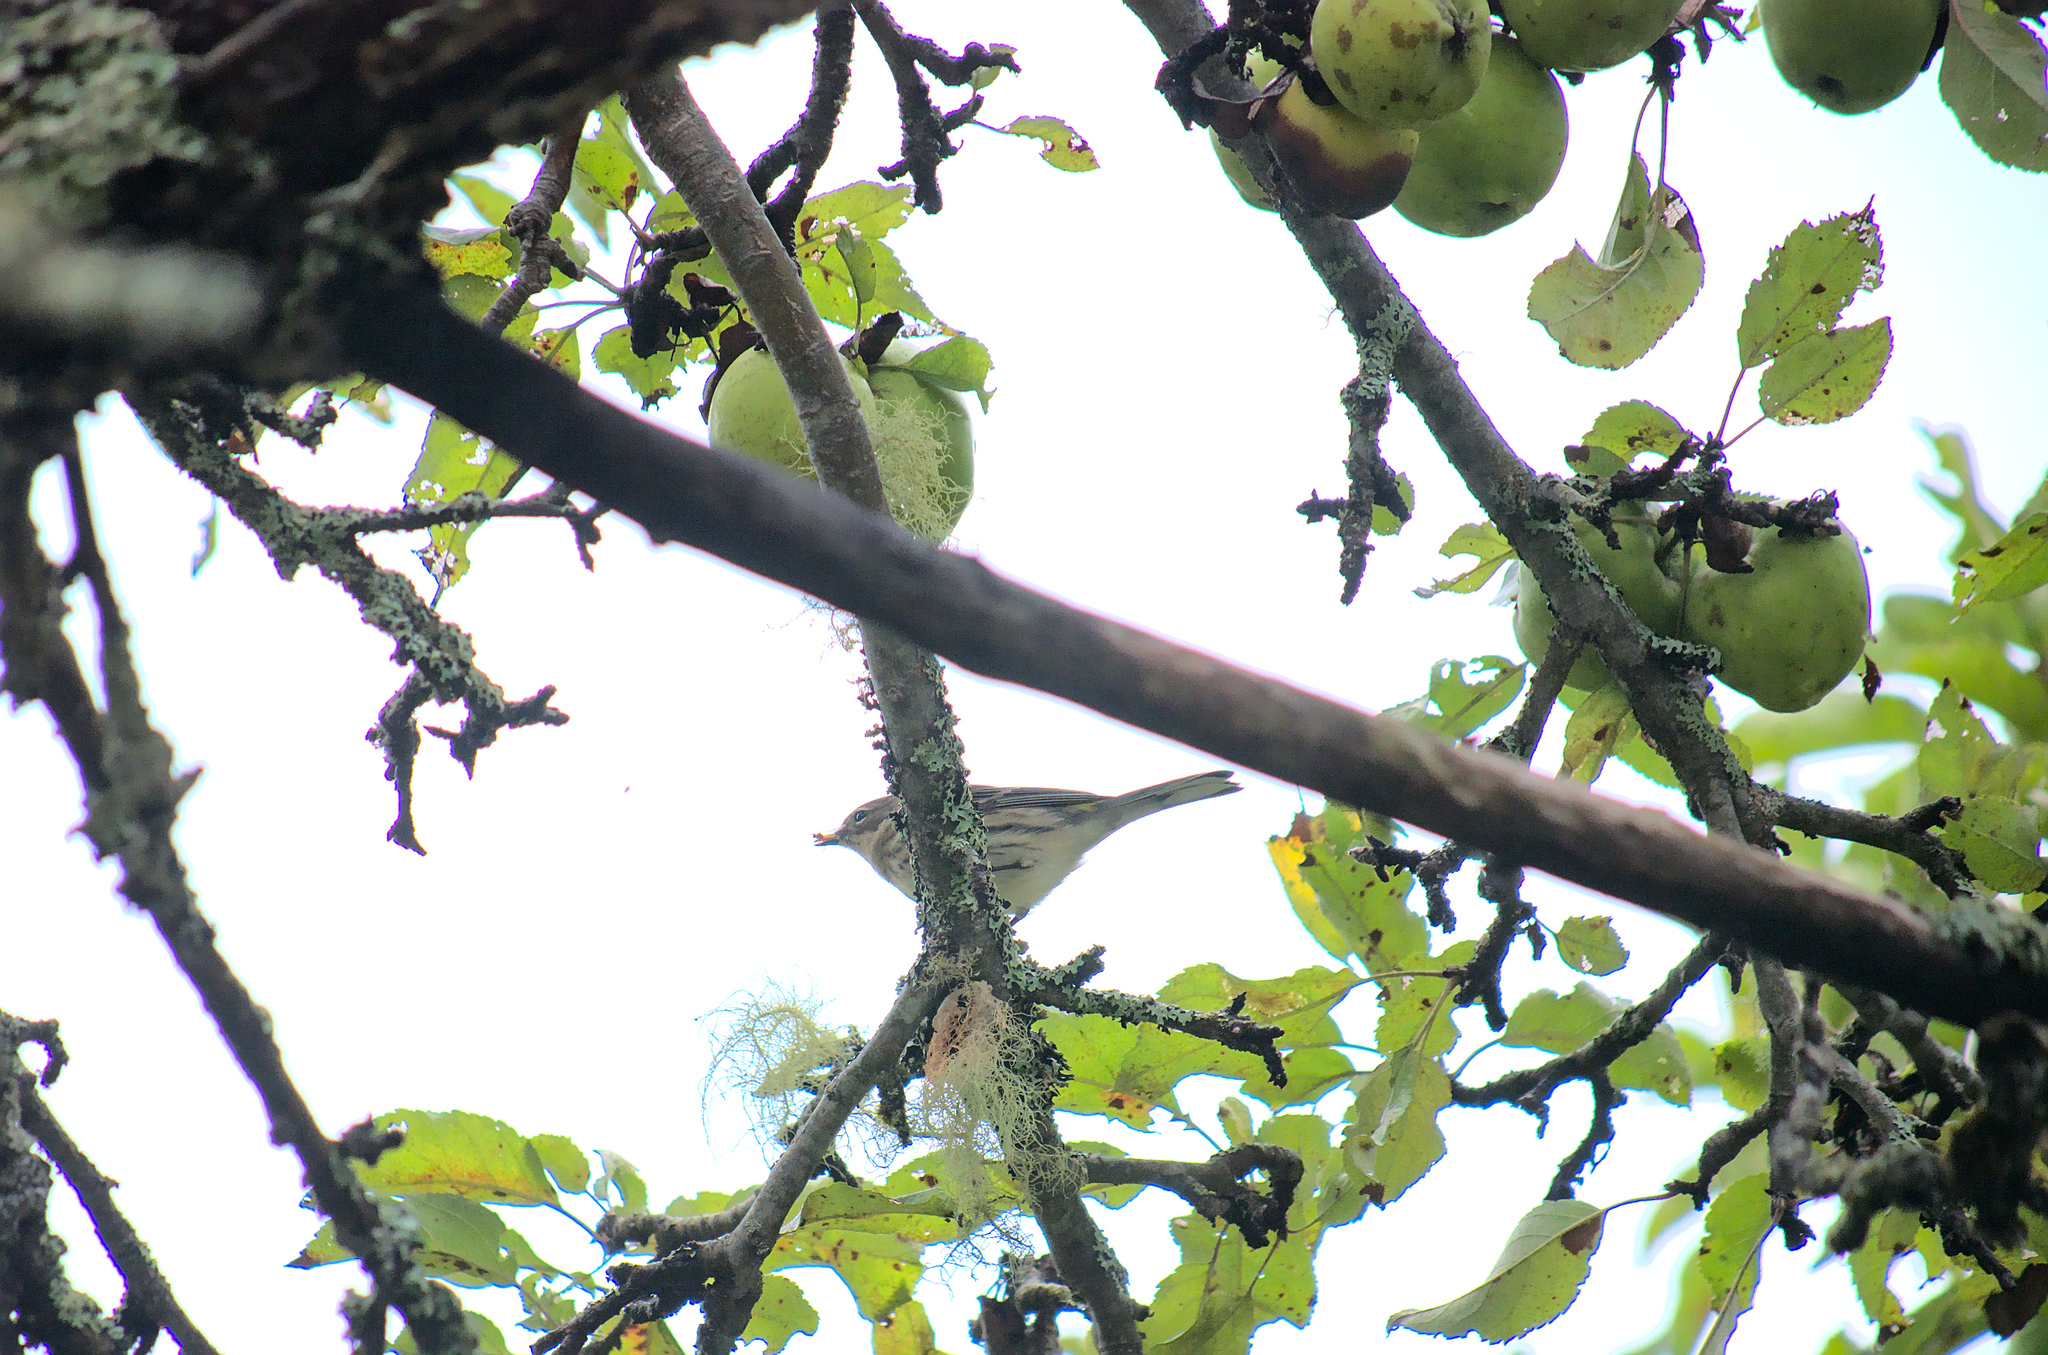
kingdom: Animalia
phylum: Chordata
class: Aves
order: Passeriformes
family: Parulidae
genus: Setophaga
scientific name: Setophaga coronata
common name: Myrtle warbler
